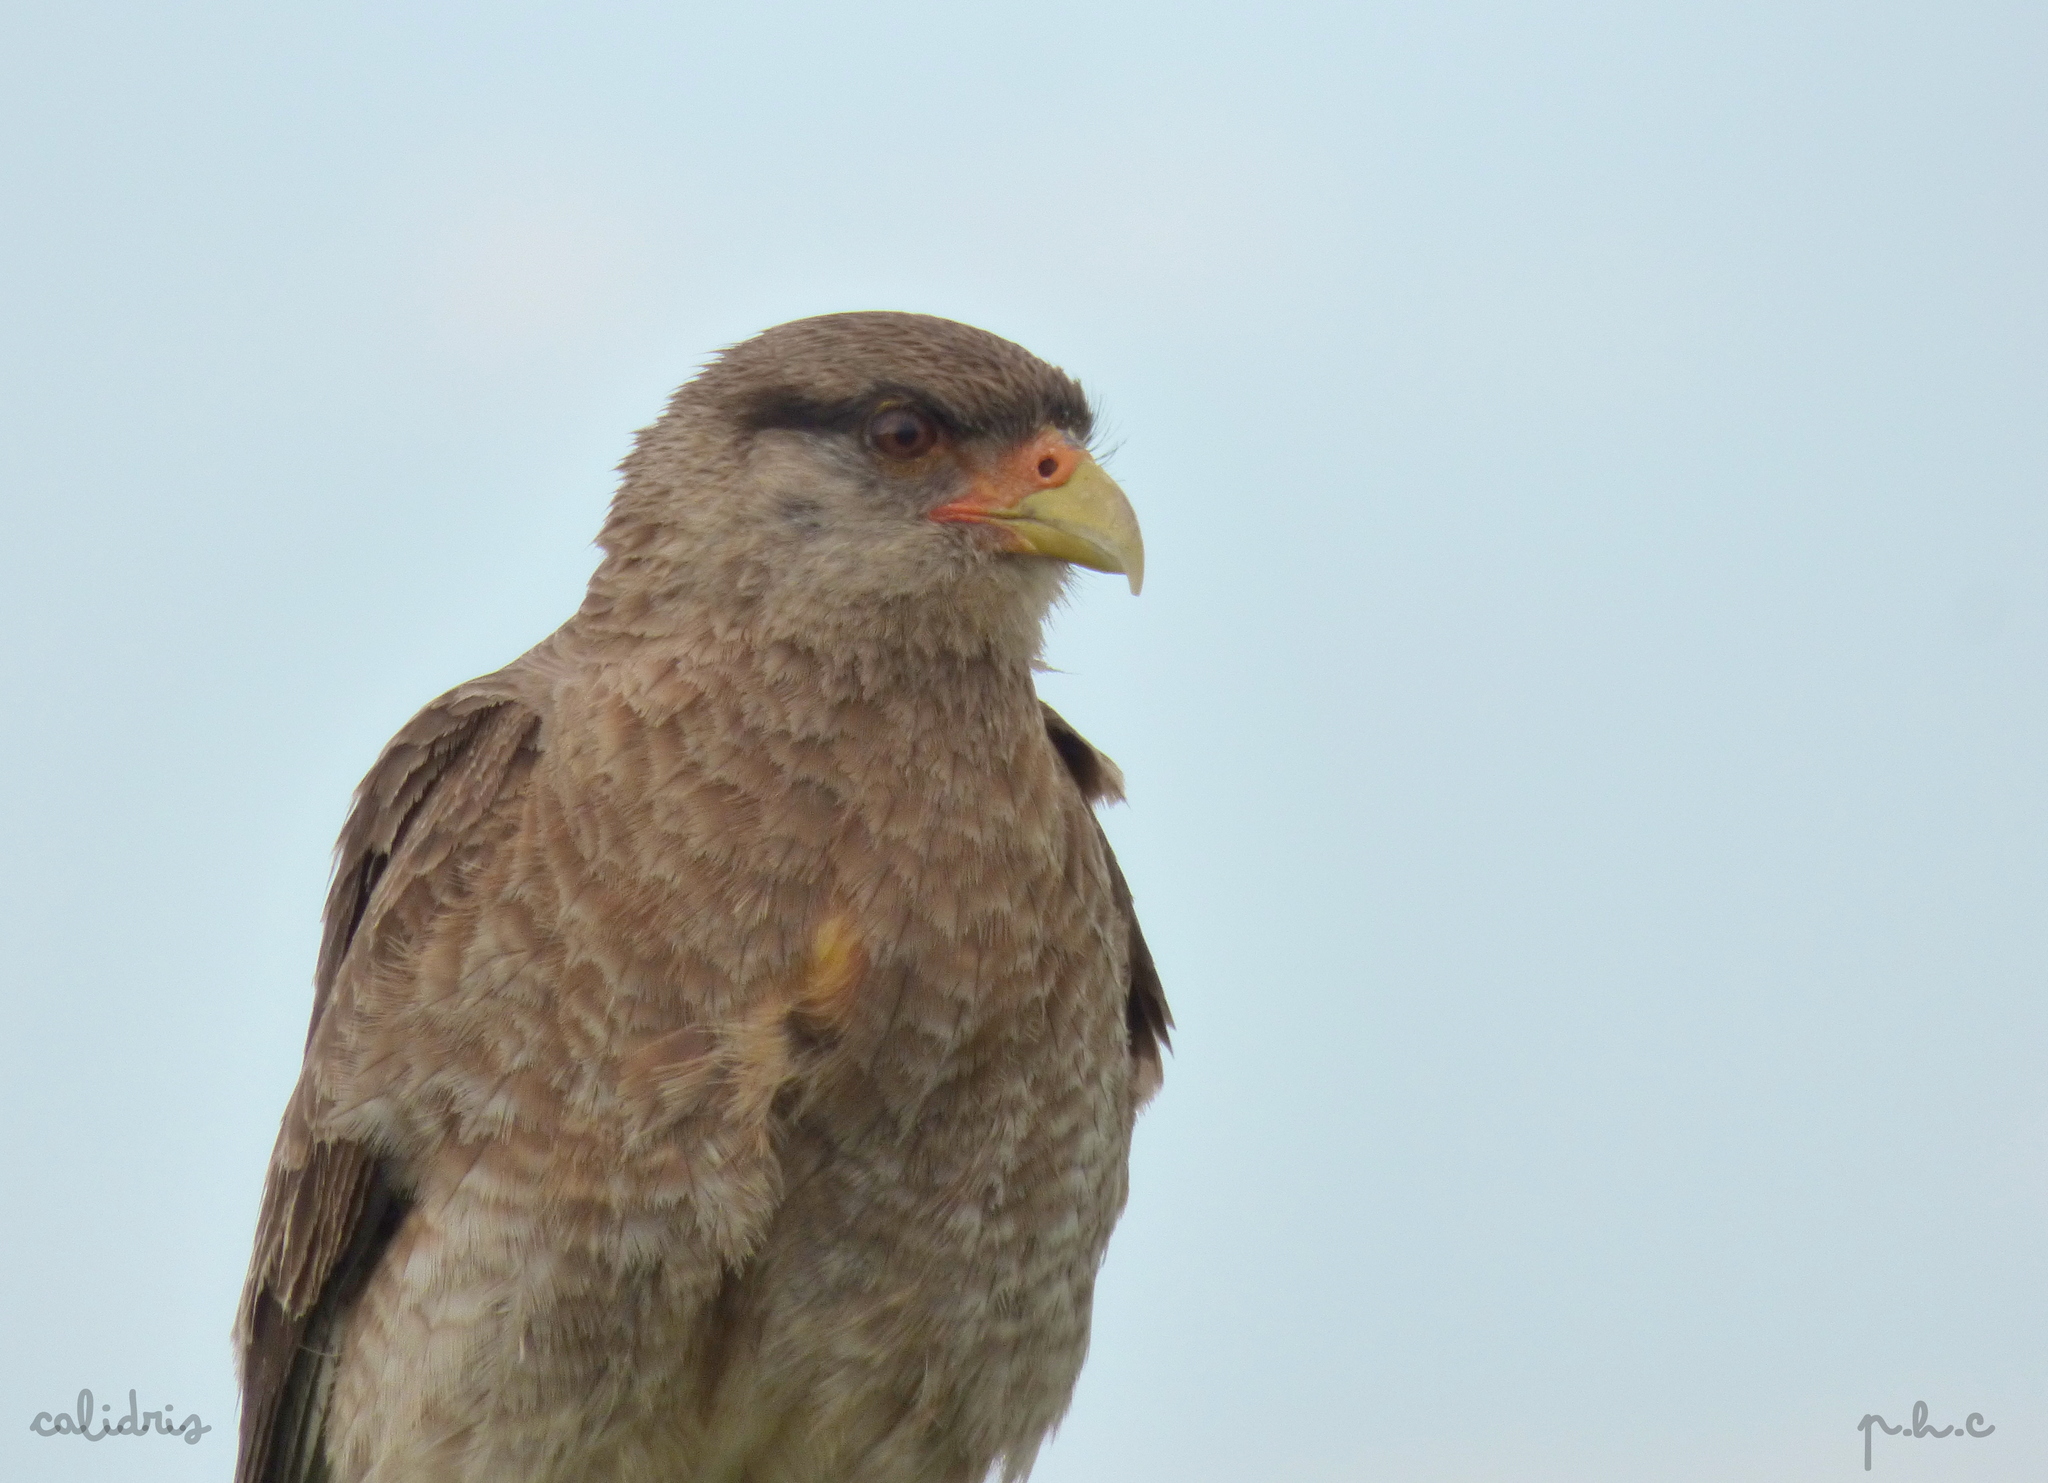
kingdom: Animalia
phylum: Chordata
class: Aves
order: Falconiformes
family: Falconidae
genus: Daptrius
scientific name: Daptrius
